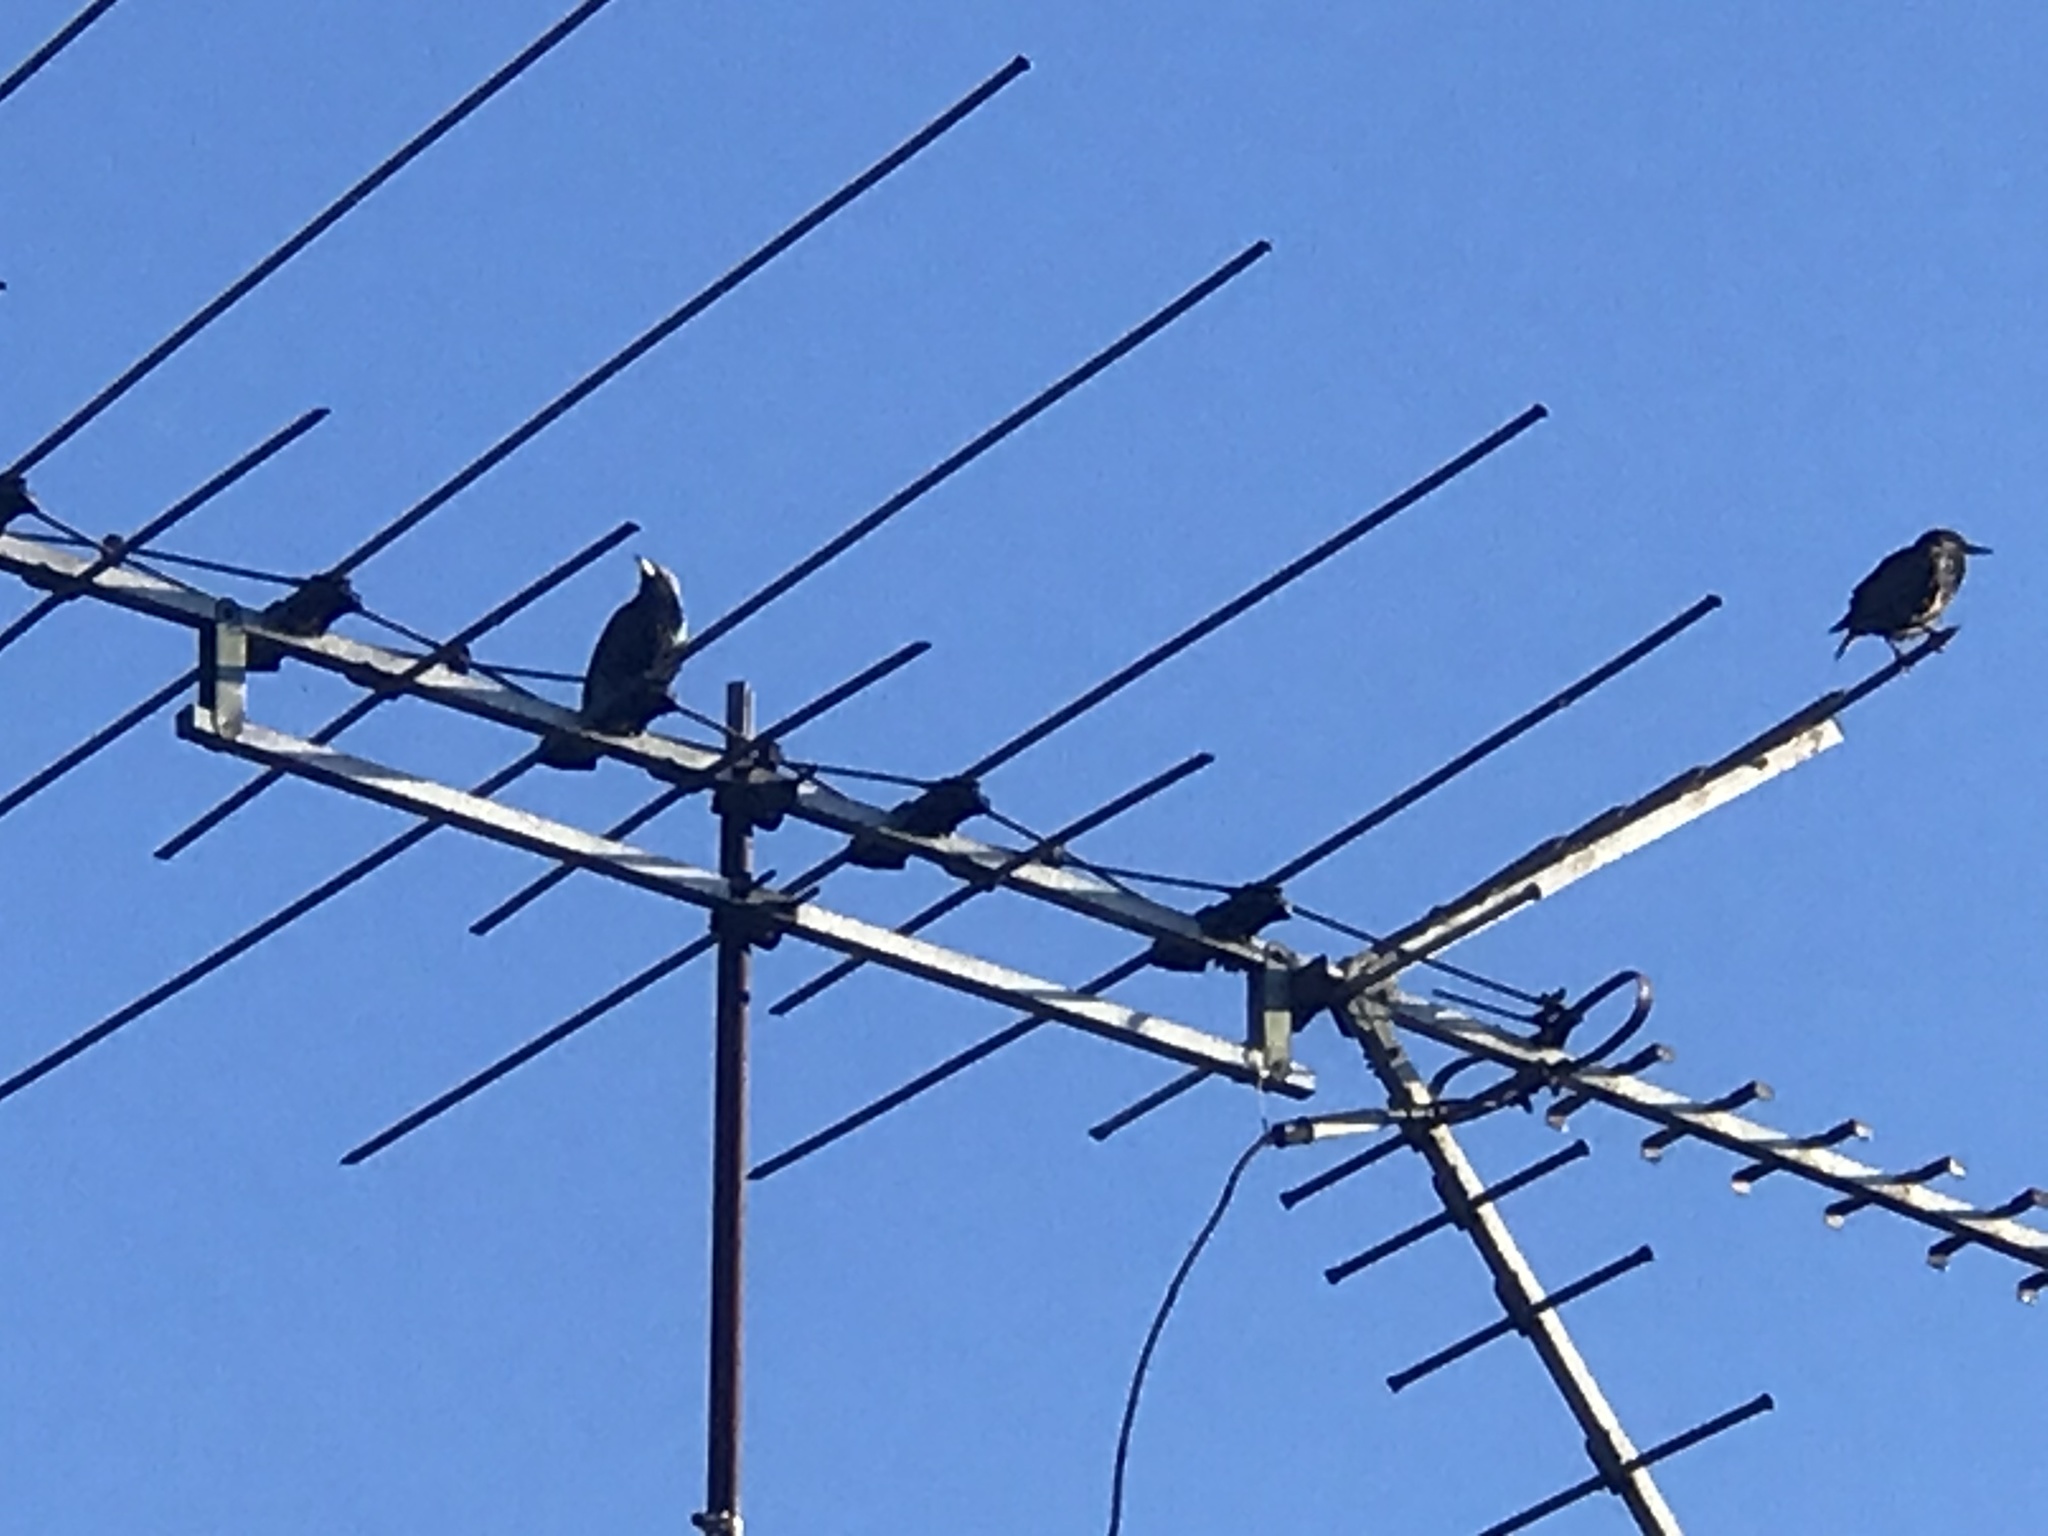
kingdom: Animalia
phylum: Chordata
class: Aves
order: Passeriformes
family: Sturnidae
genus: Sturnus
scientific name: Sturnus vulgaris
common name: Common starling
